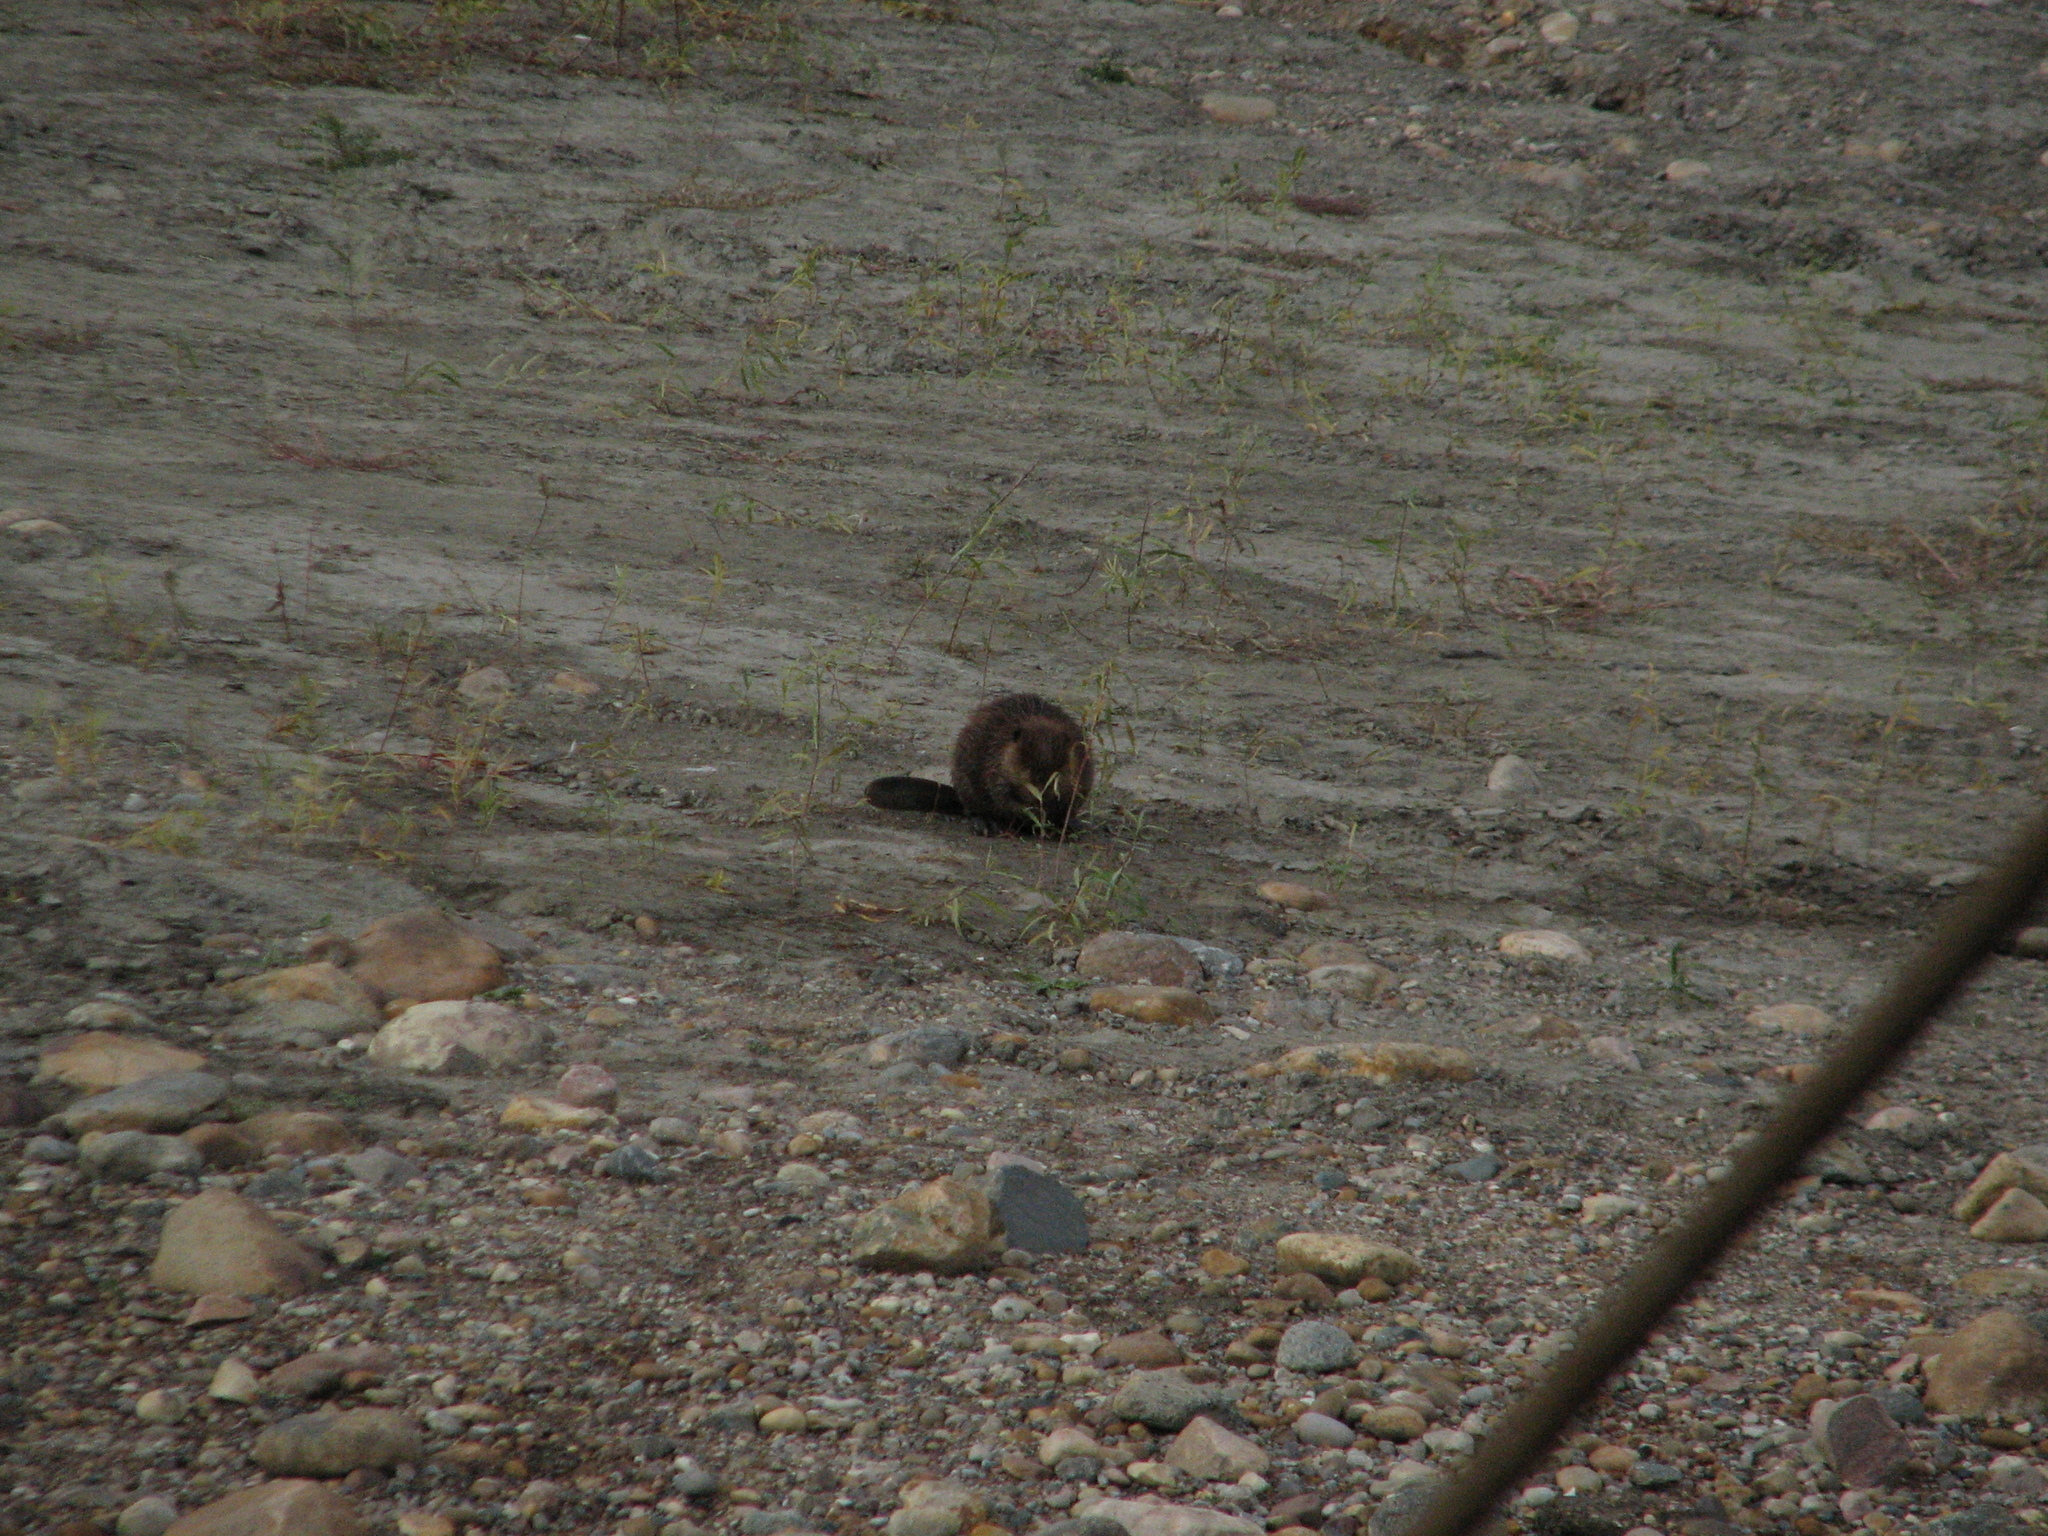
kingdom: Animalia
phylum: Chordata
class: Mammalia
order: Rodentia
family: Castoridae
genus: Castor
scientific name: Castor canadensis
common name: American beaver
